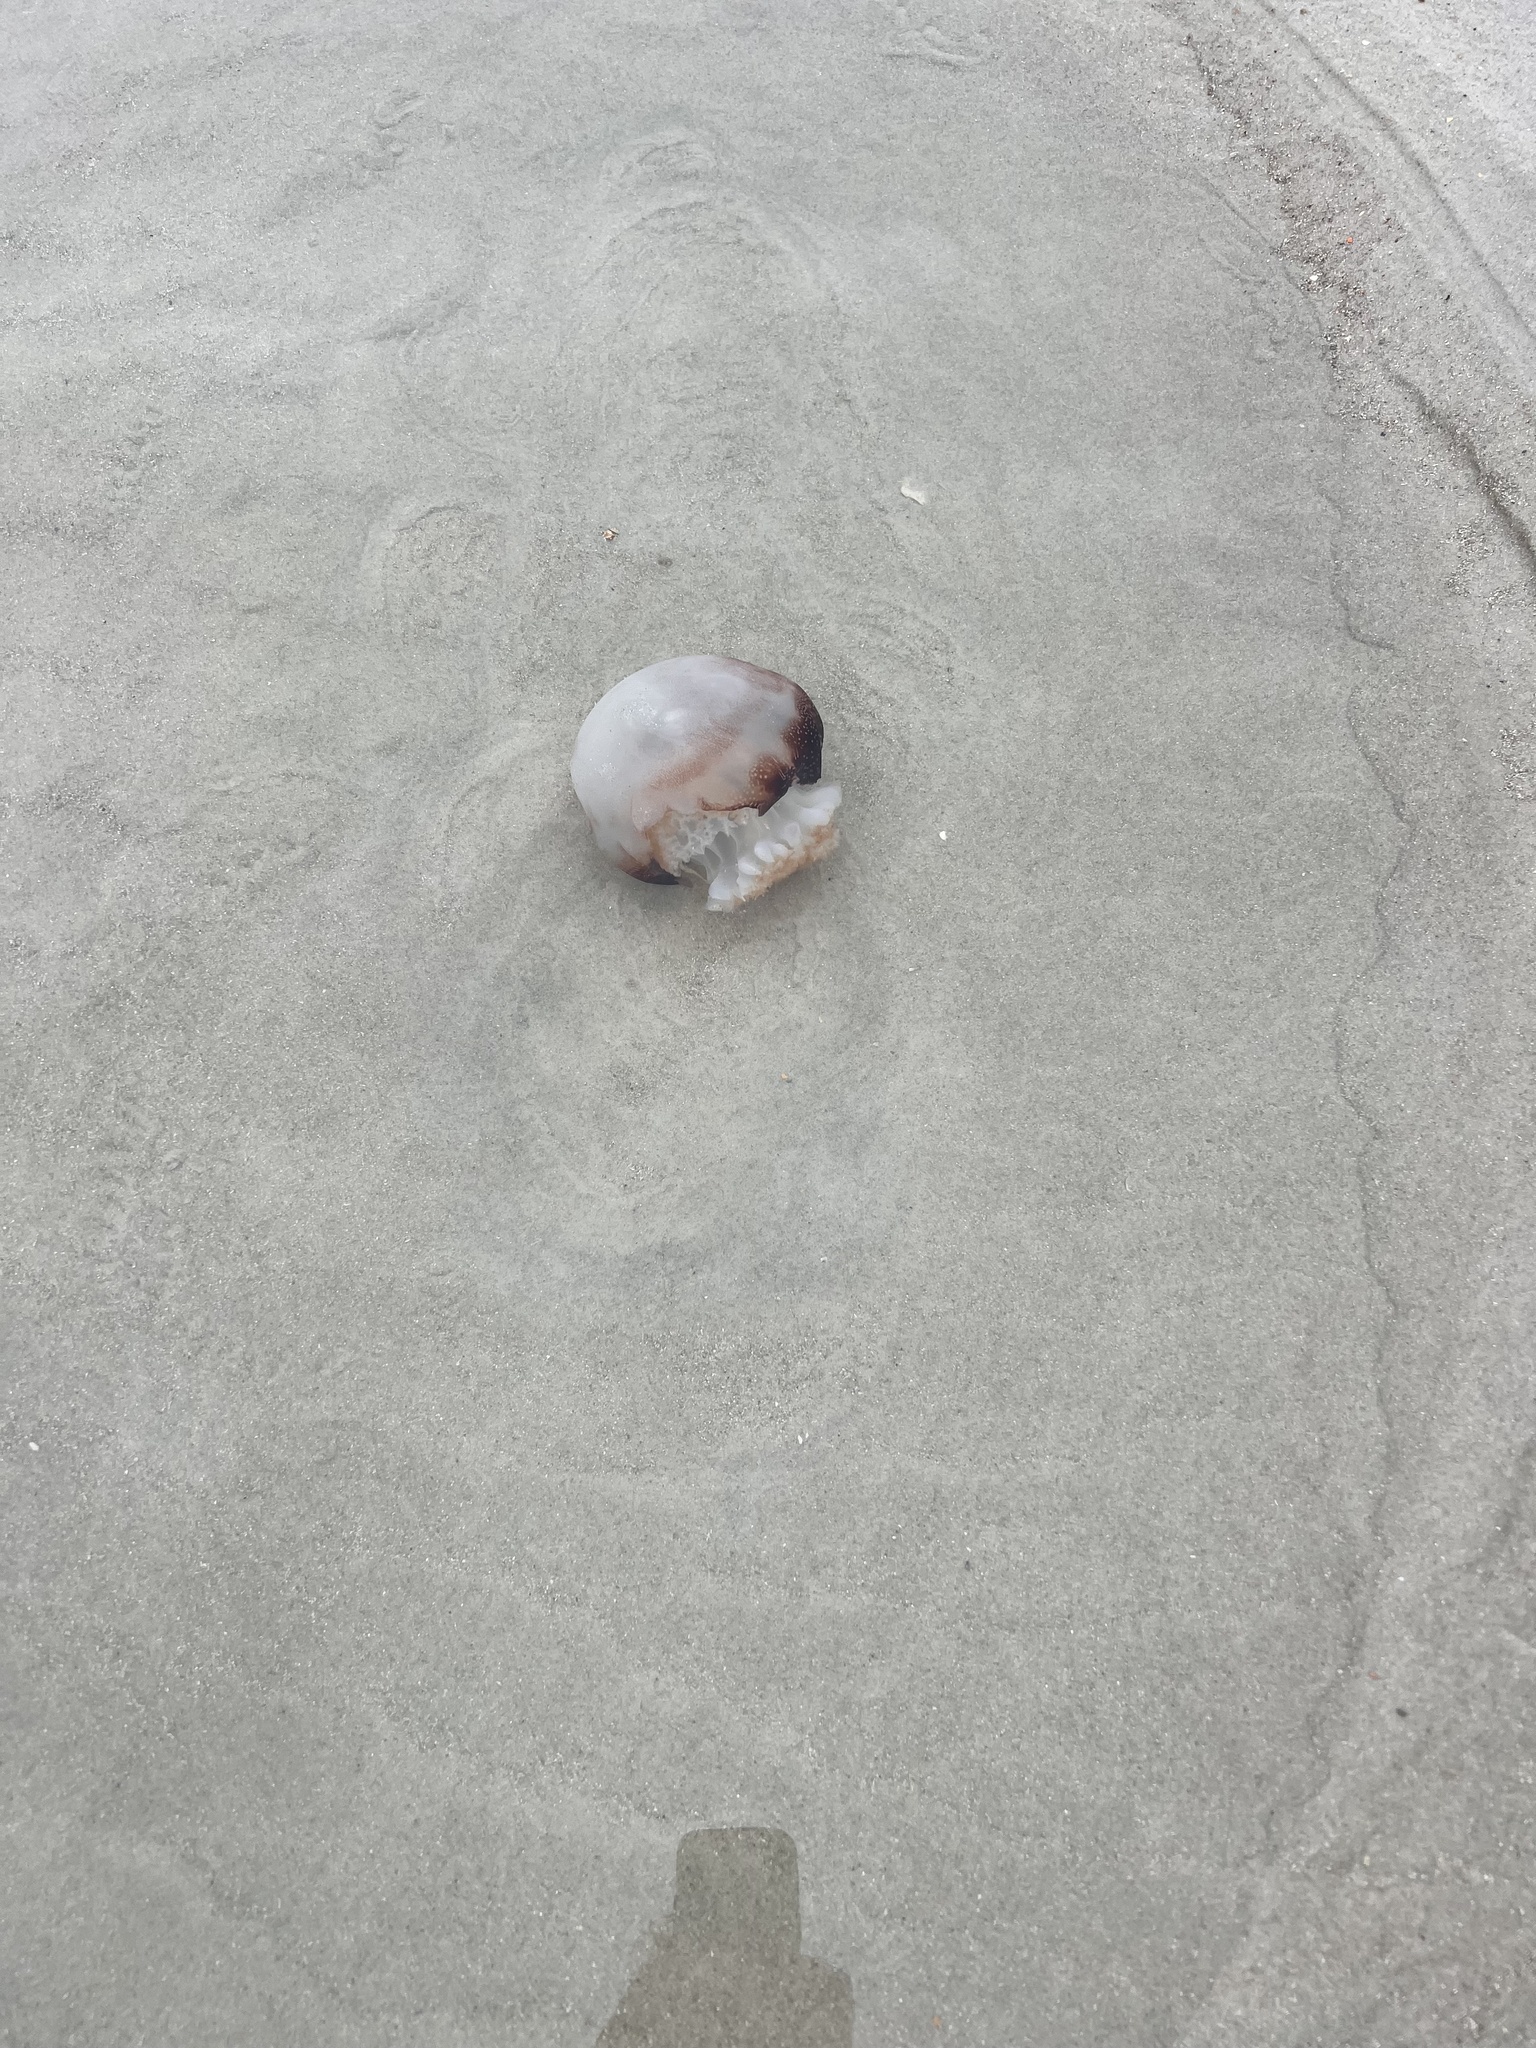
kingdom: Animalia
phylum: Cnidaria
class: Scyphozoa
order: Rhizostomeae
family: Stomolophidae
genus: Stomolophus
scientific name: Stomolophus meleagris
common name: Cabbagehead
